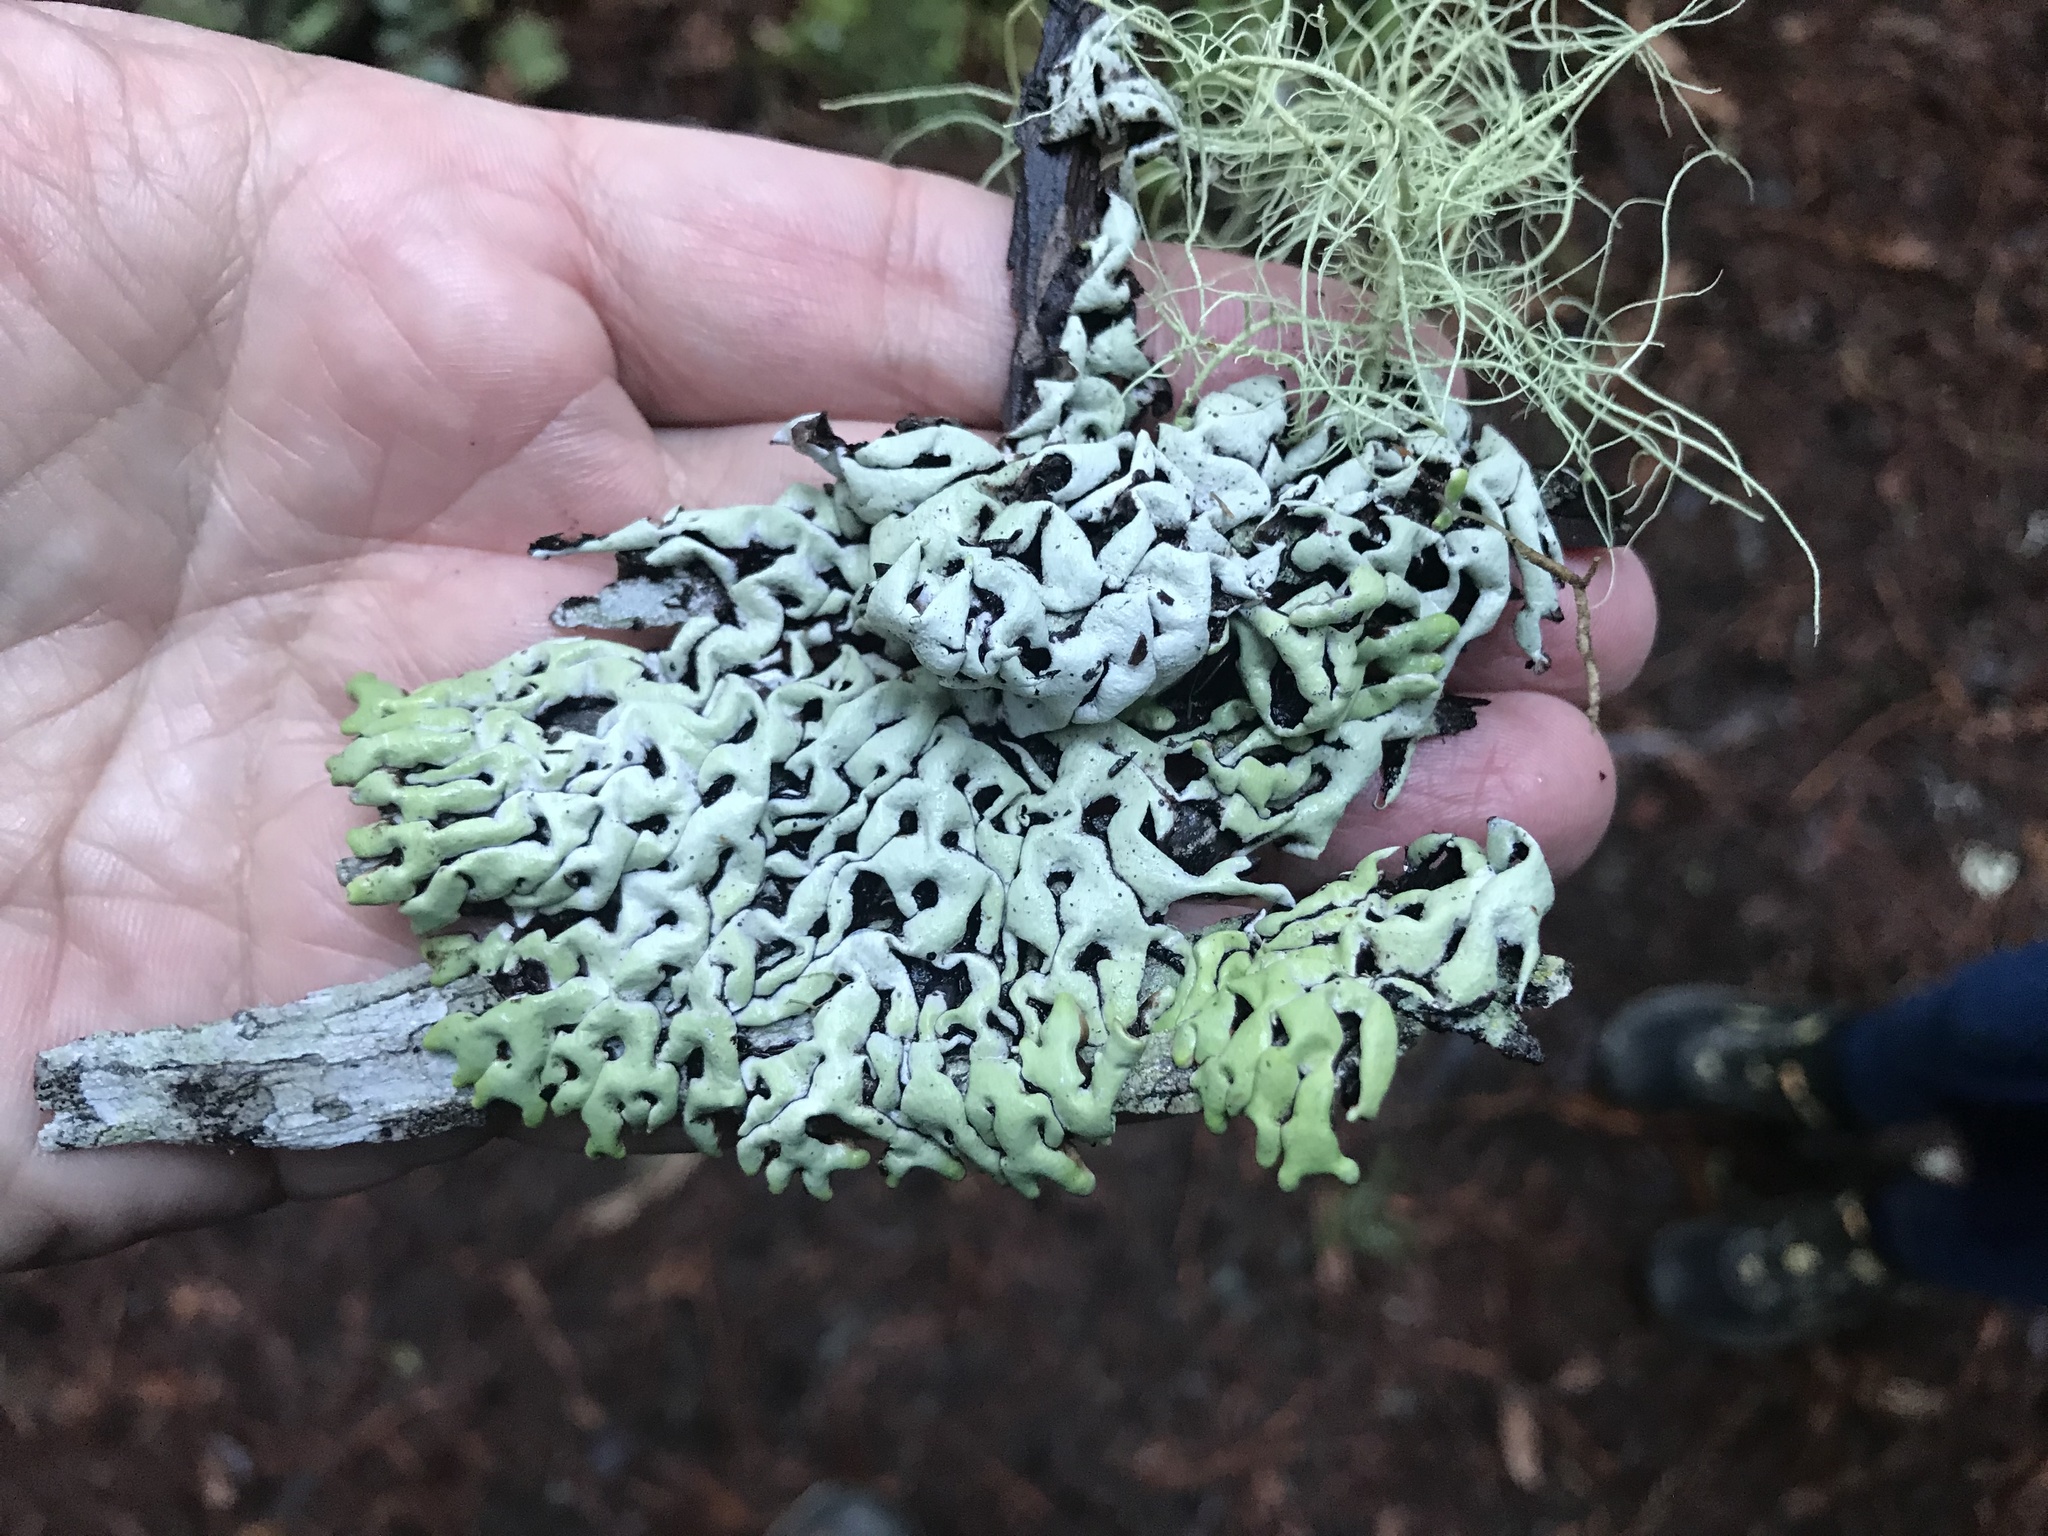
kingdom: Fungi
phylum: Ascomycota
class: Lecanoromycetes
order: Lecanorales
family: Parmeliaceae
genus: Menegazzia
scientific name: Menegazzia terebrata
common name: Magic treeflute lichen
